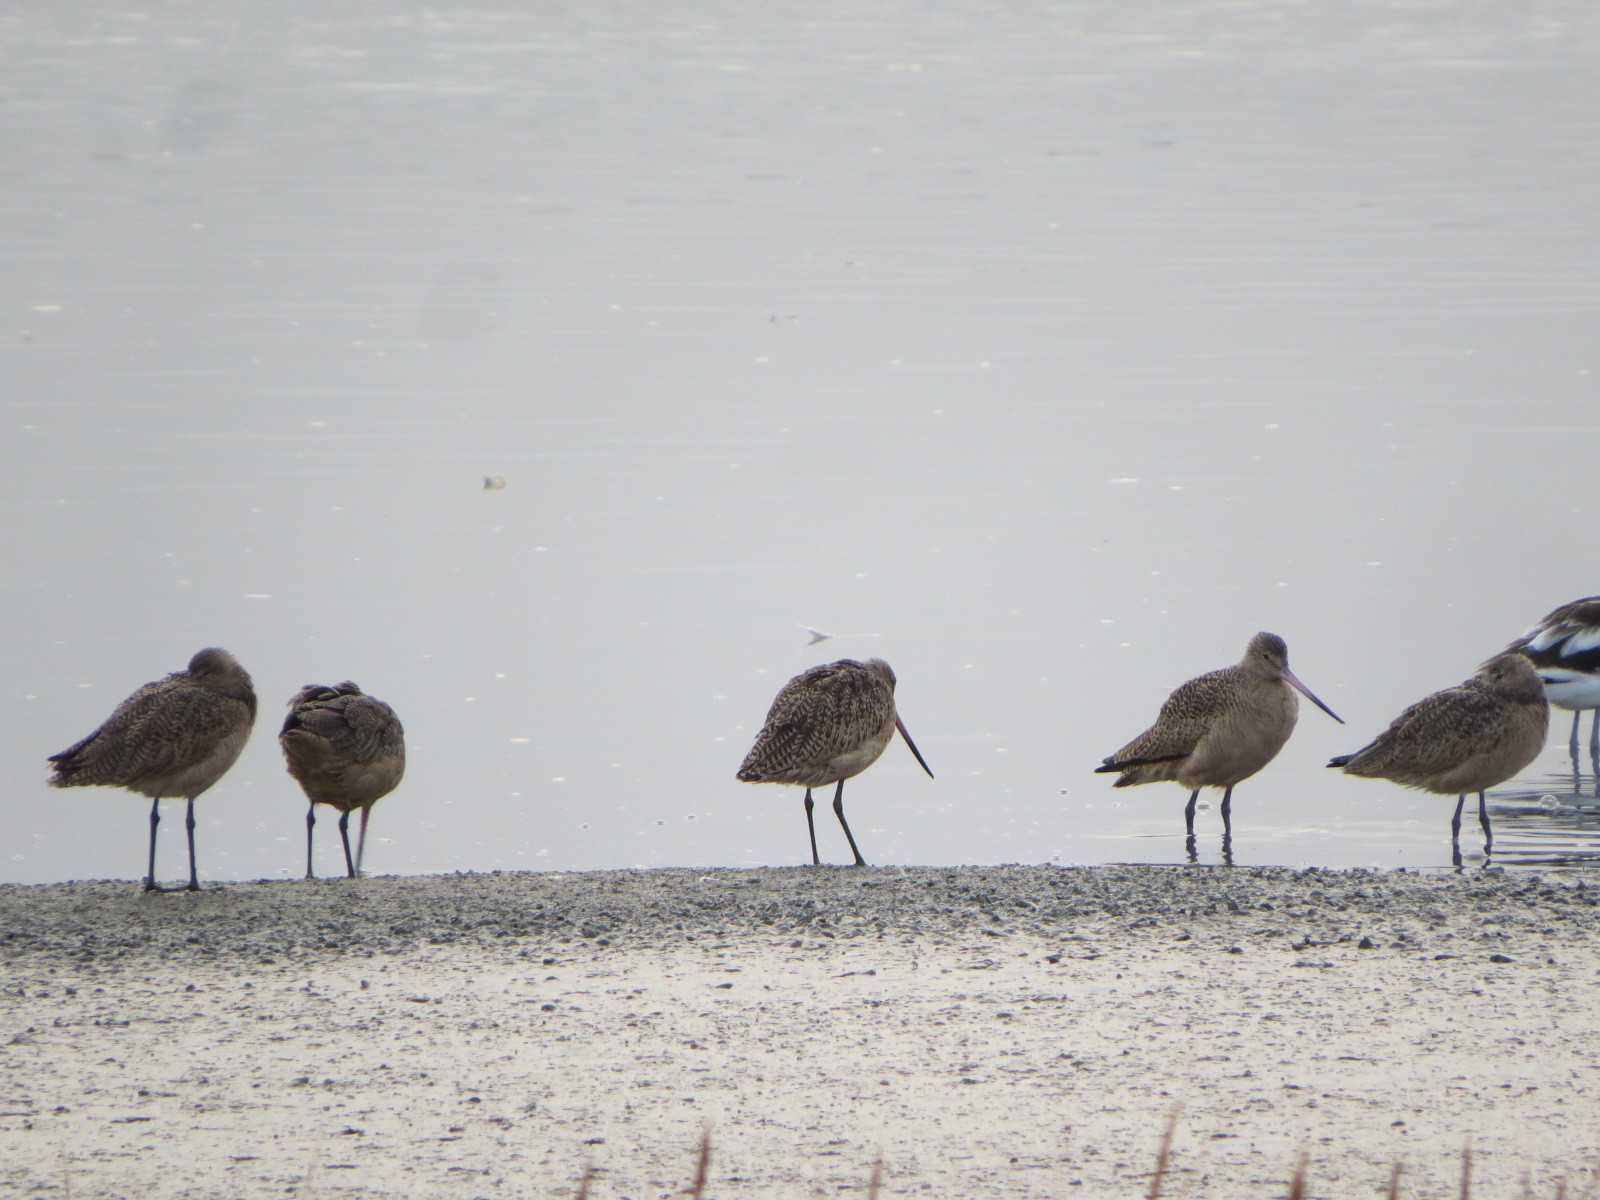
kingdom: Animalia
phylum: Chordata
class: Aves
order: Charadriiformes
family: Scolopacidae
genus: Limosa
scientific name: Limosa fedoa
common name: Marbled godwit
